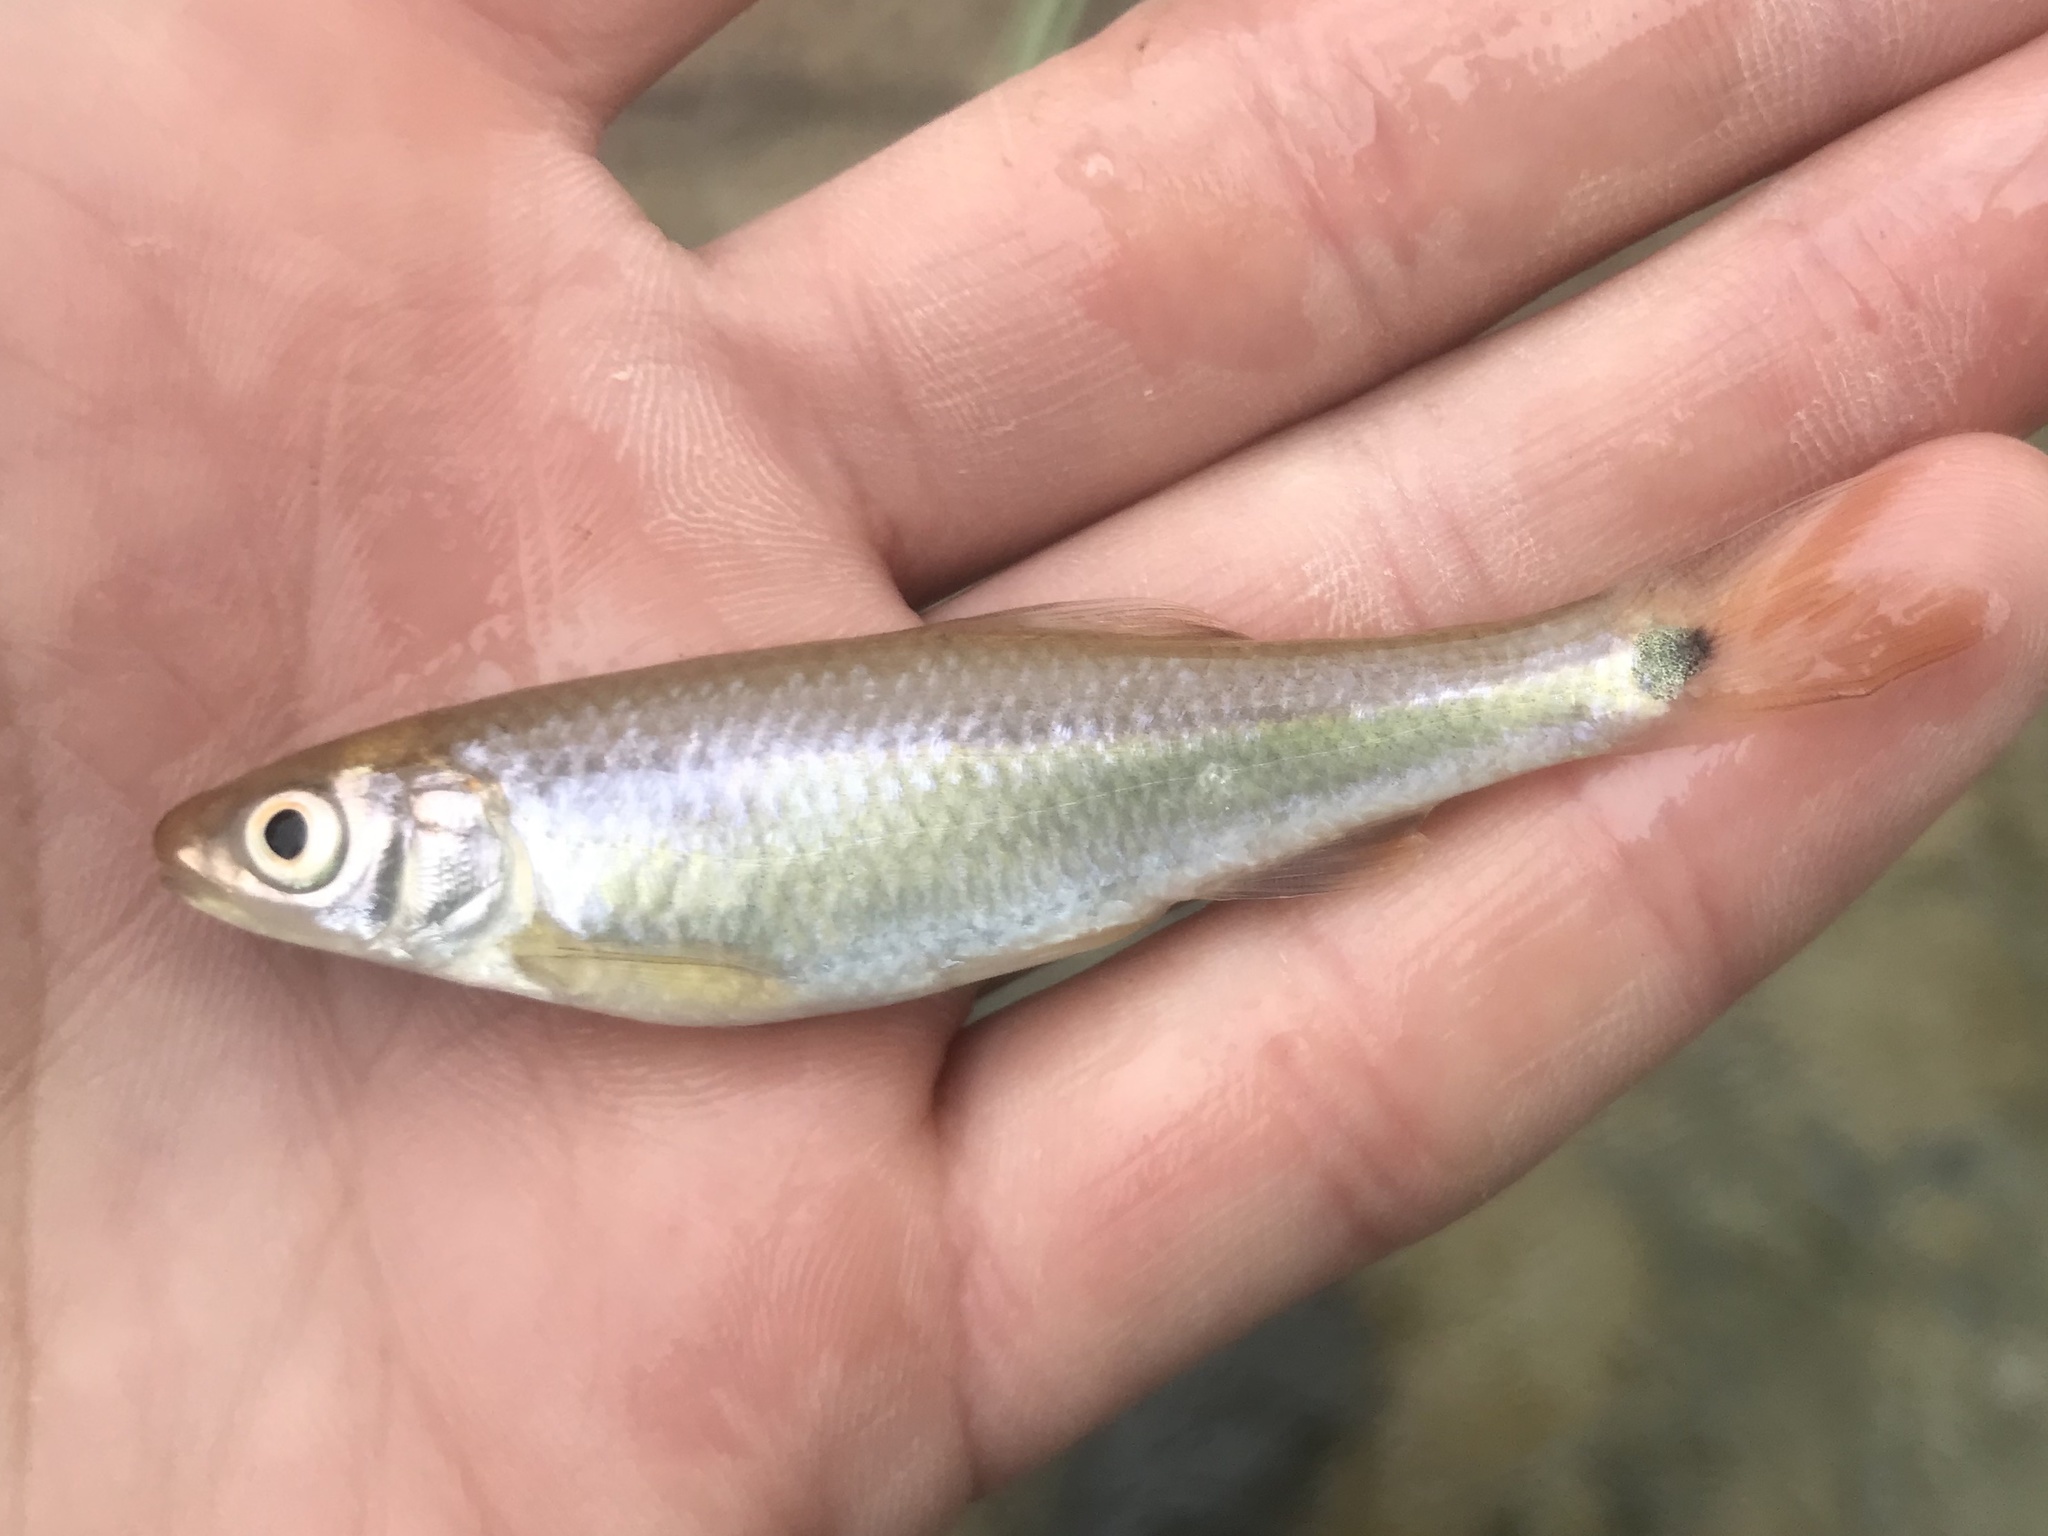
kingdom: Animalia
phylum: Chordata
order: Cypriniformes
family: Cyprinidae
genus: Cyprinella
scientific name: Cyprinella venusta
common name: Blacktail shiner
